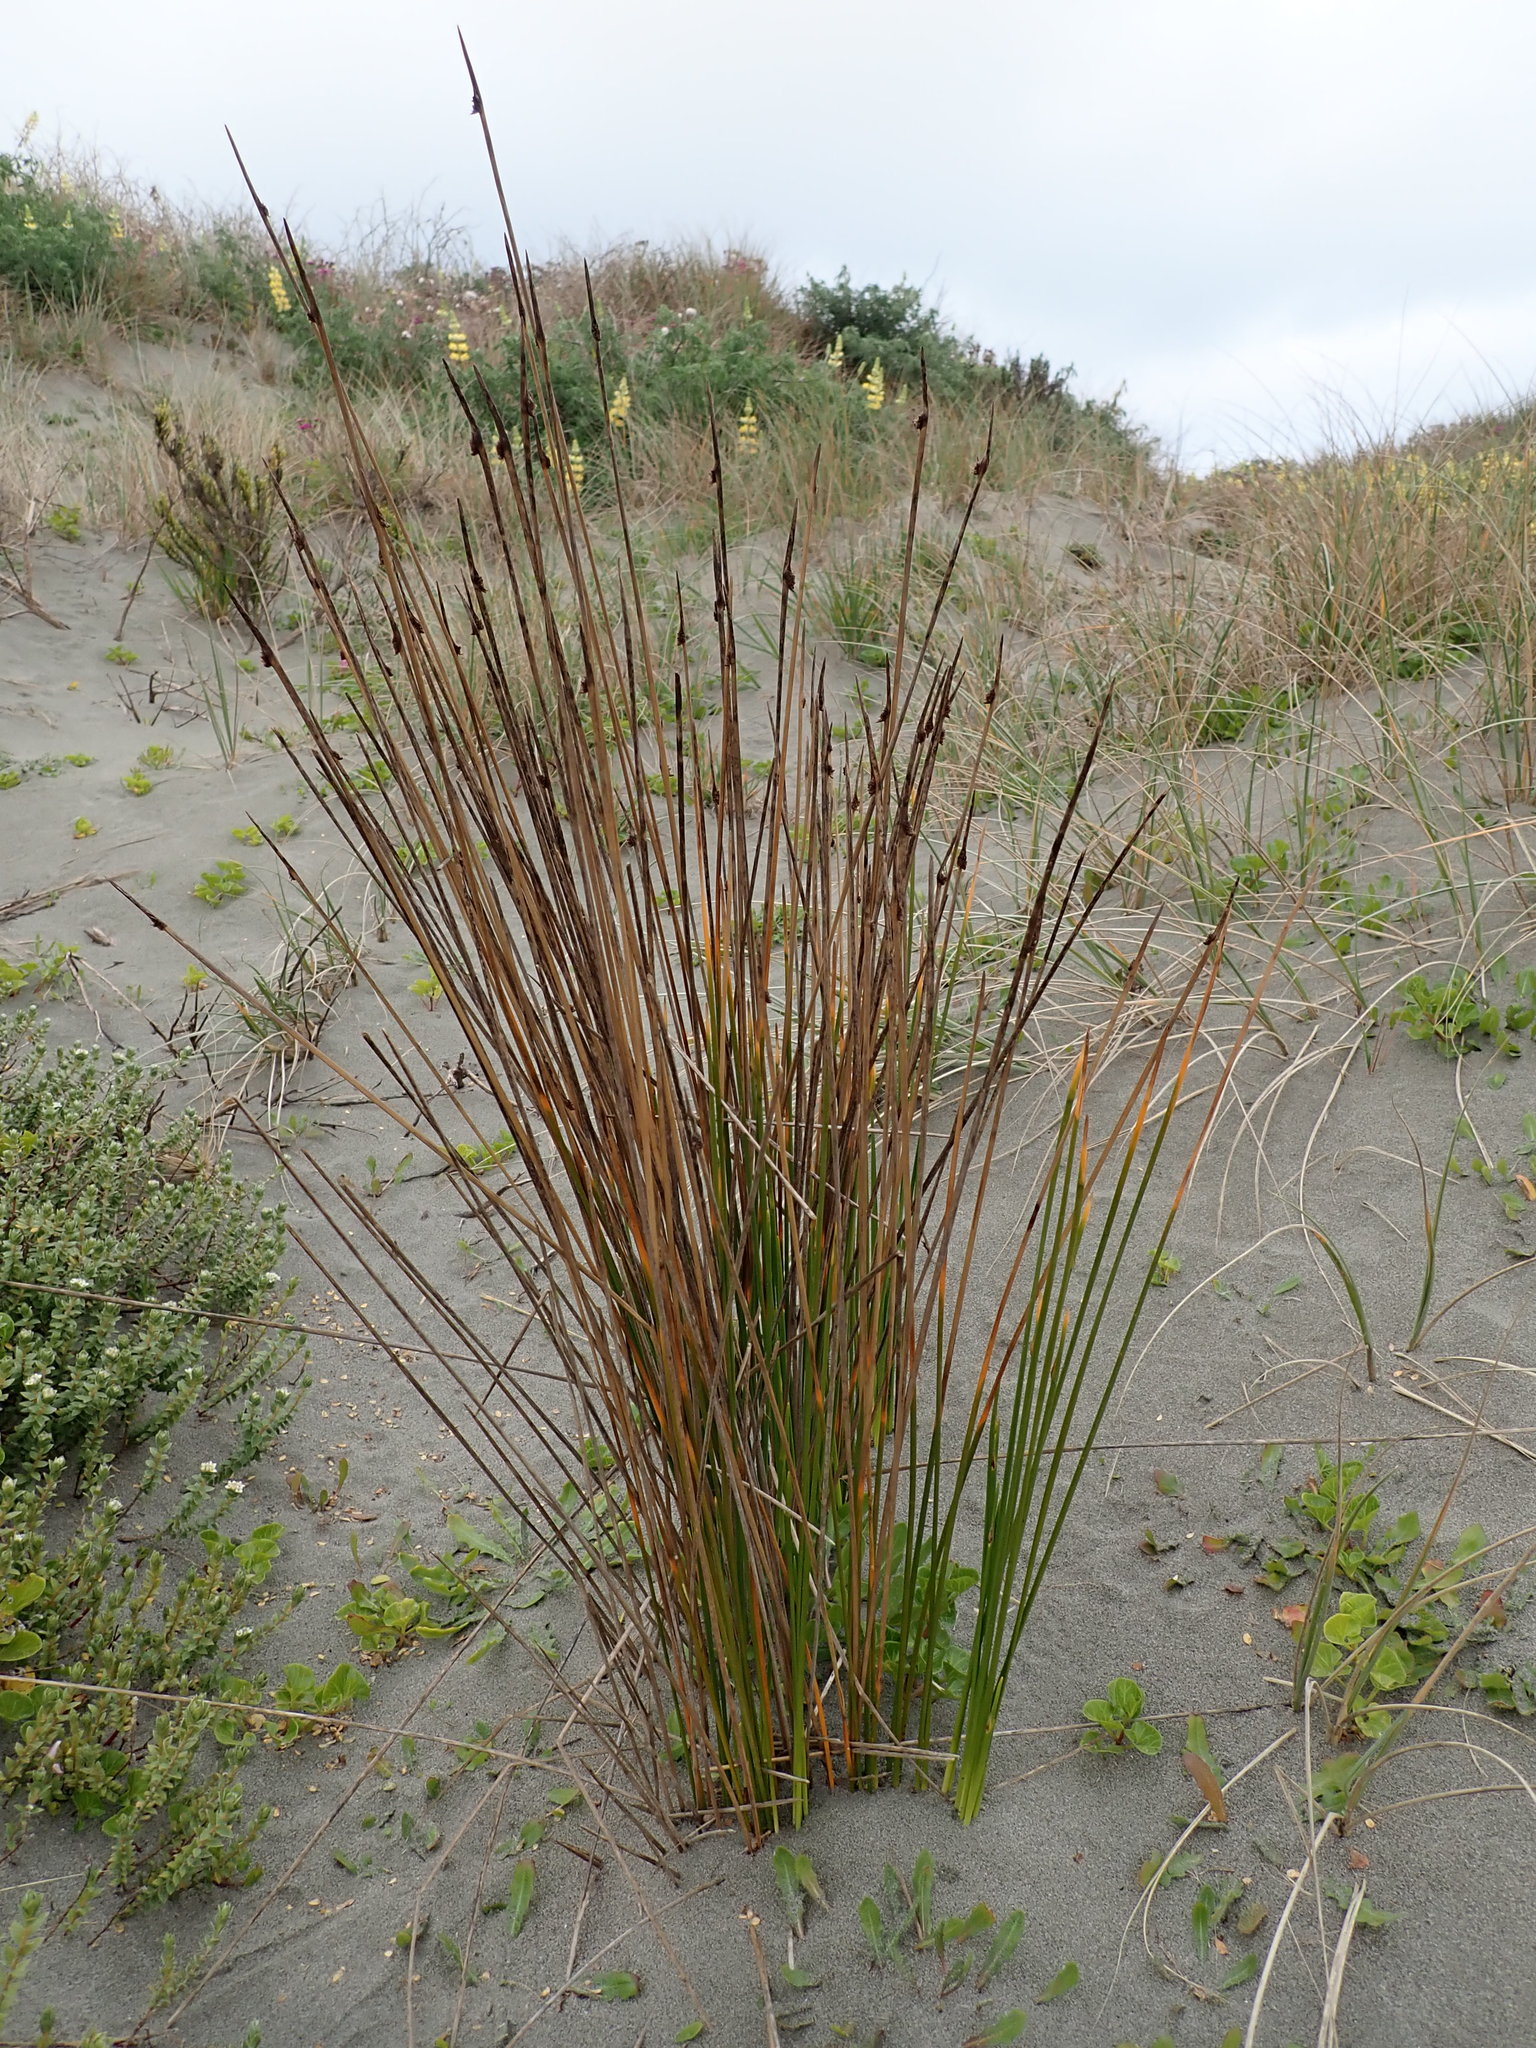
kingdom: Plantae
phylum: Tracheophyta
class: Liliopsida
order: Poales
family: Cyperaceae
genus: Ficinia
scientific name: Ficinia nodosa
